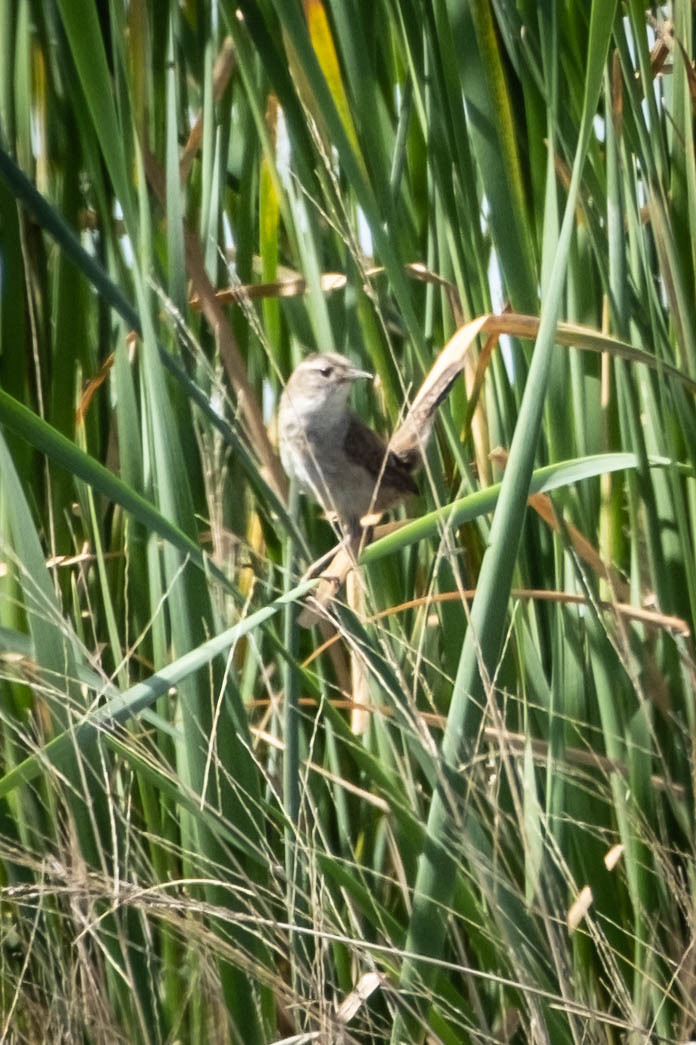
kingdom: Animalia
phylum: Chordata
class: Aves
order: Passeriformes
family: Troglodytidae
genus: Cistothorus
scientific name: Cistothorus palustris
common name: Marsh wren
